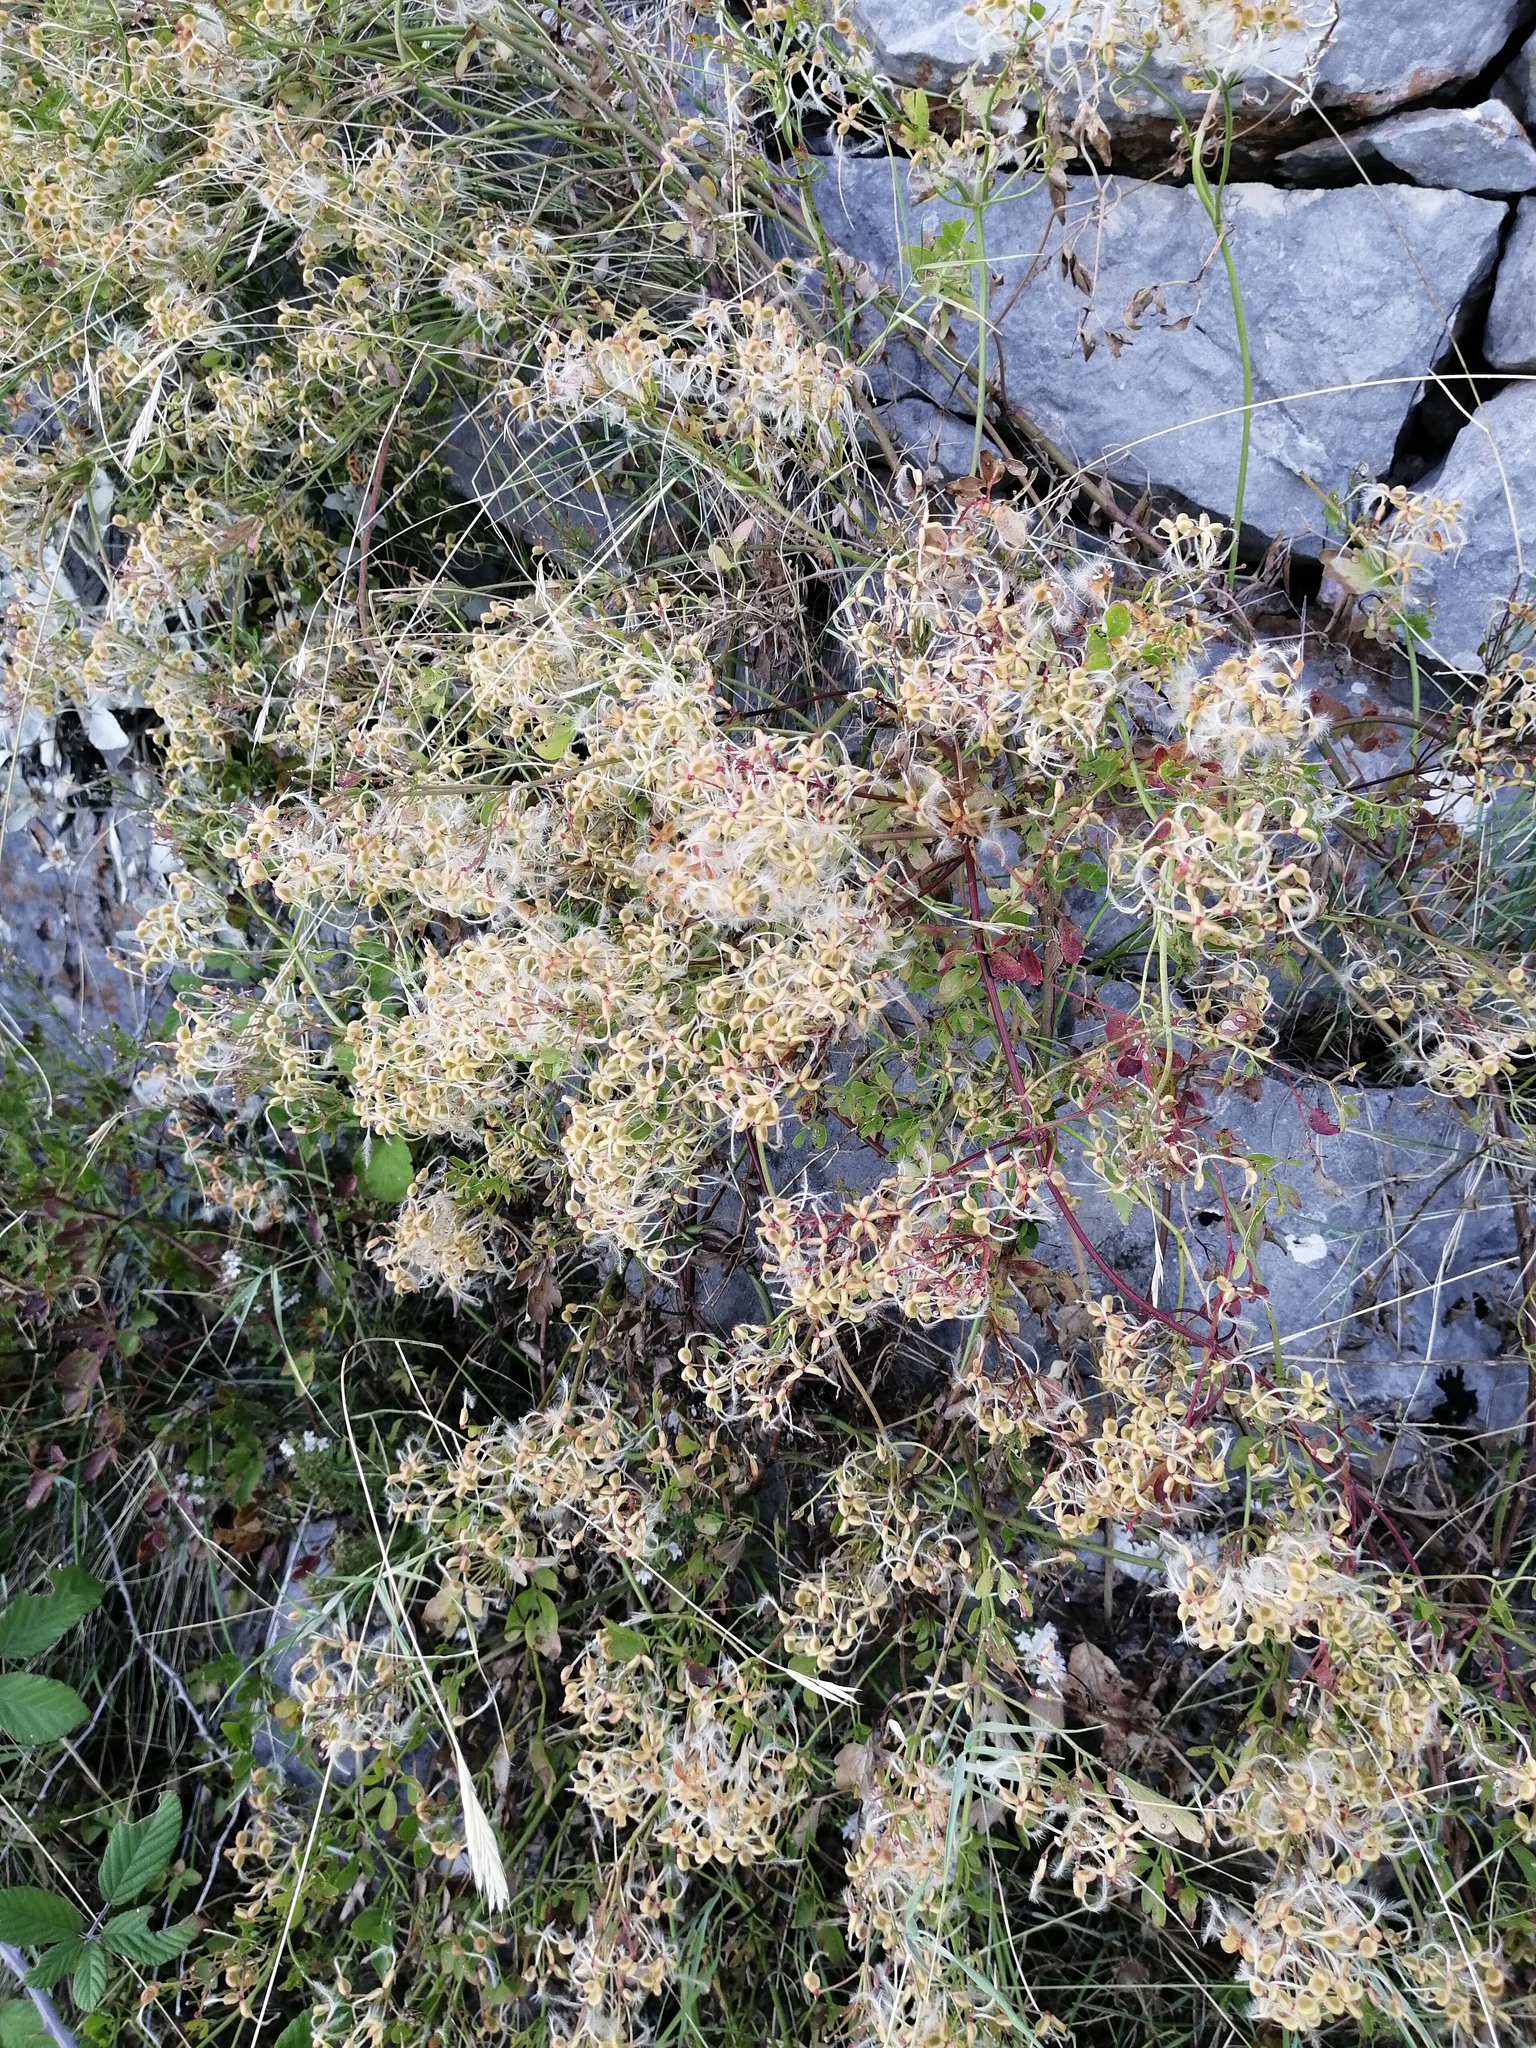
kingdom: Plantae
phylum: Tracheophyta
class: Magnoliopsida
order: Ranunculales
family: Ranunculaceae
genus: Clematis
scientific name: Clematis flammula
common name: Virgin's-bower
